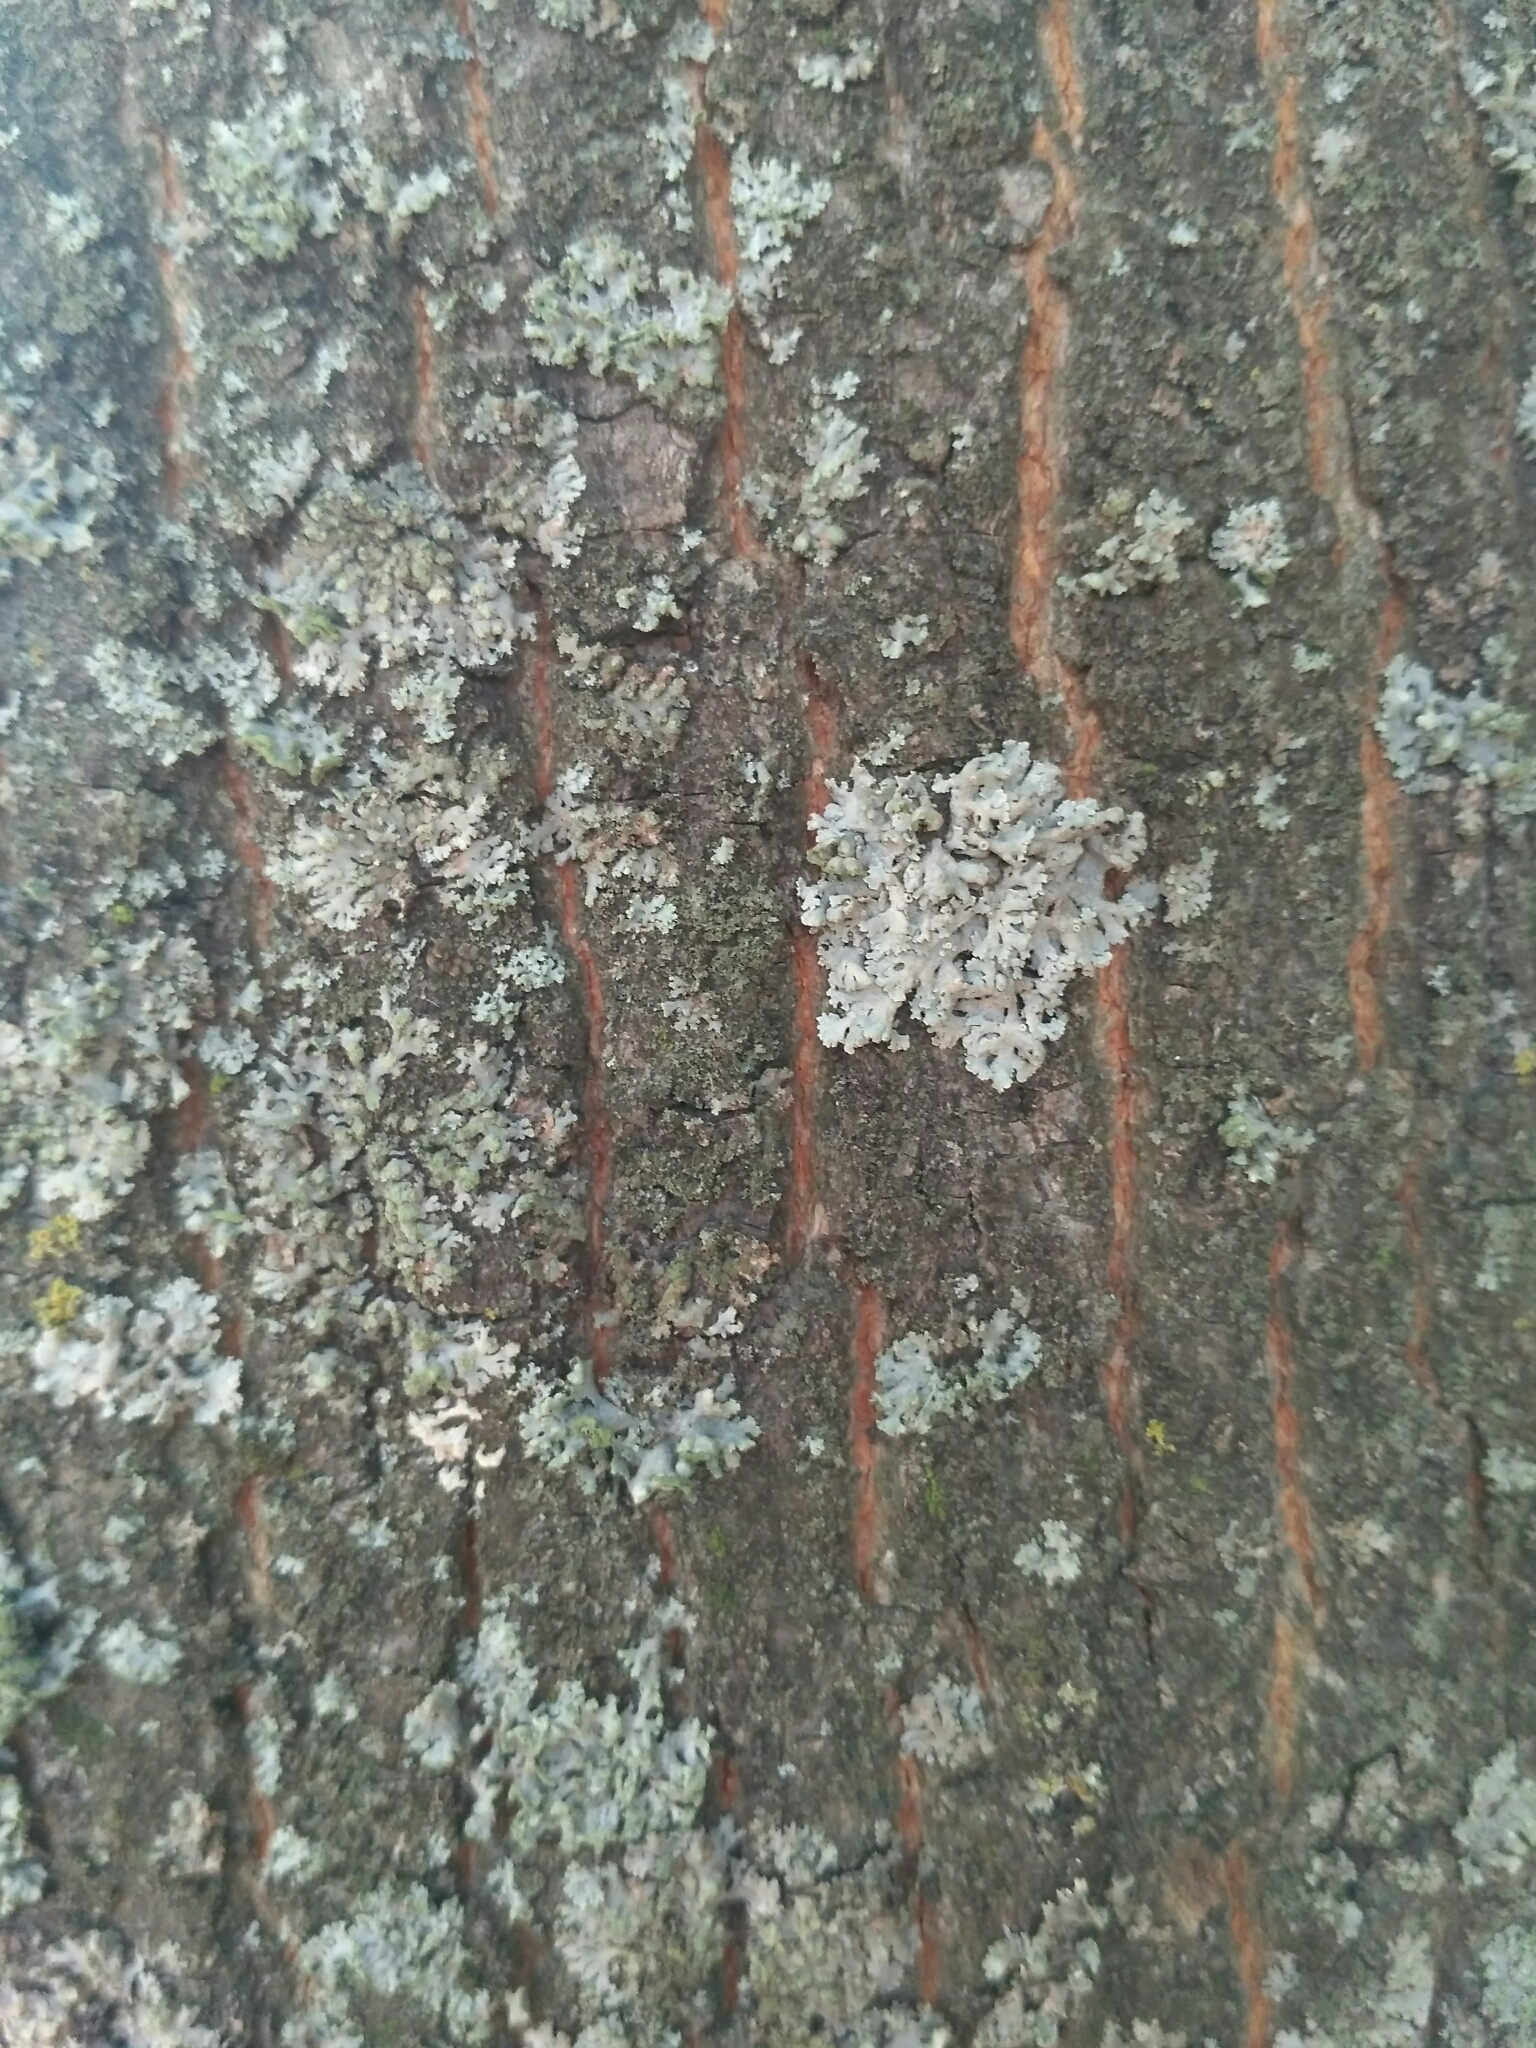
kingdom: Fungi
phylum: Ascomycota
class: Lecanoromycetes
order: Caliciales
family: Physciaceae
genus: Physcia
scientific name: Physcia stellaris
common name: Star rosette lichen
